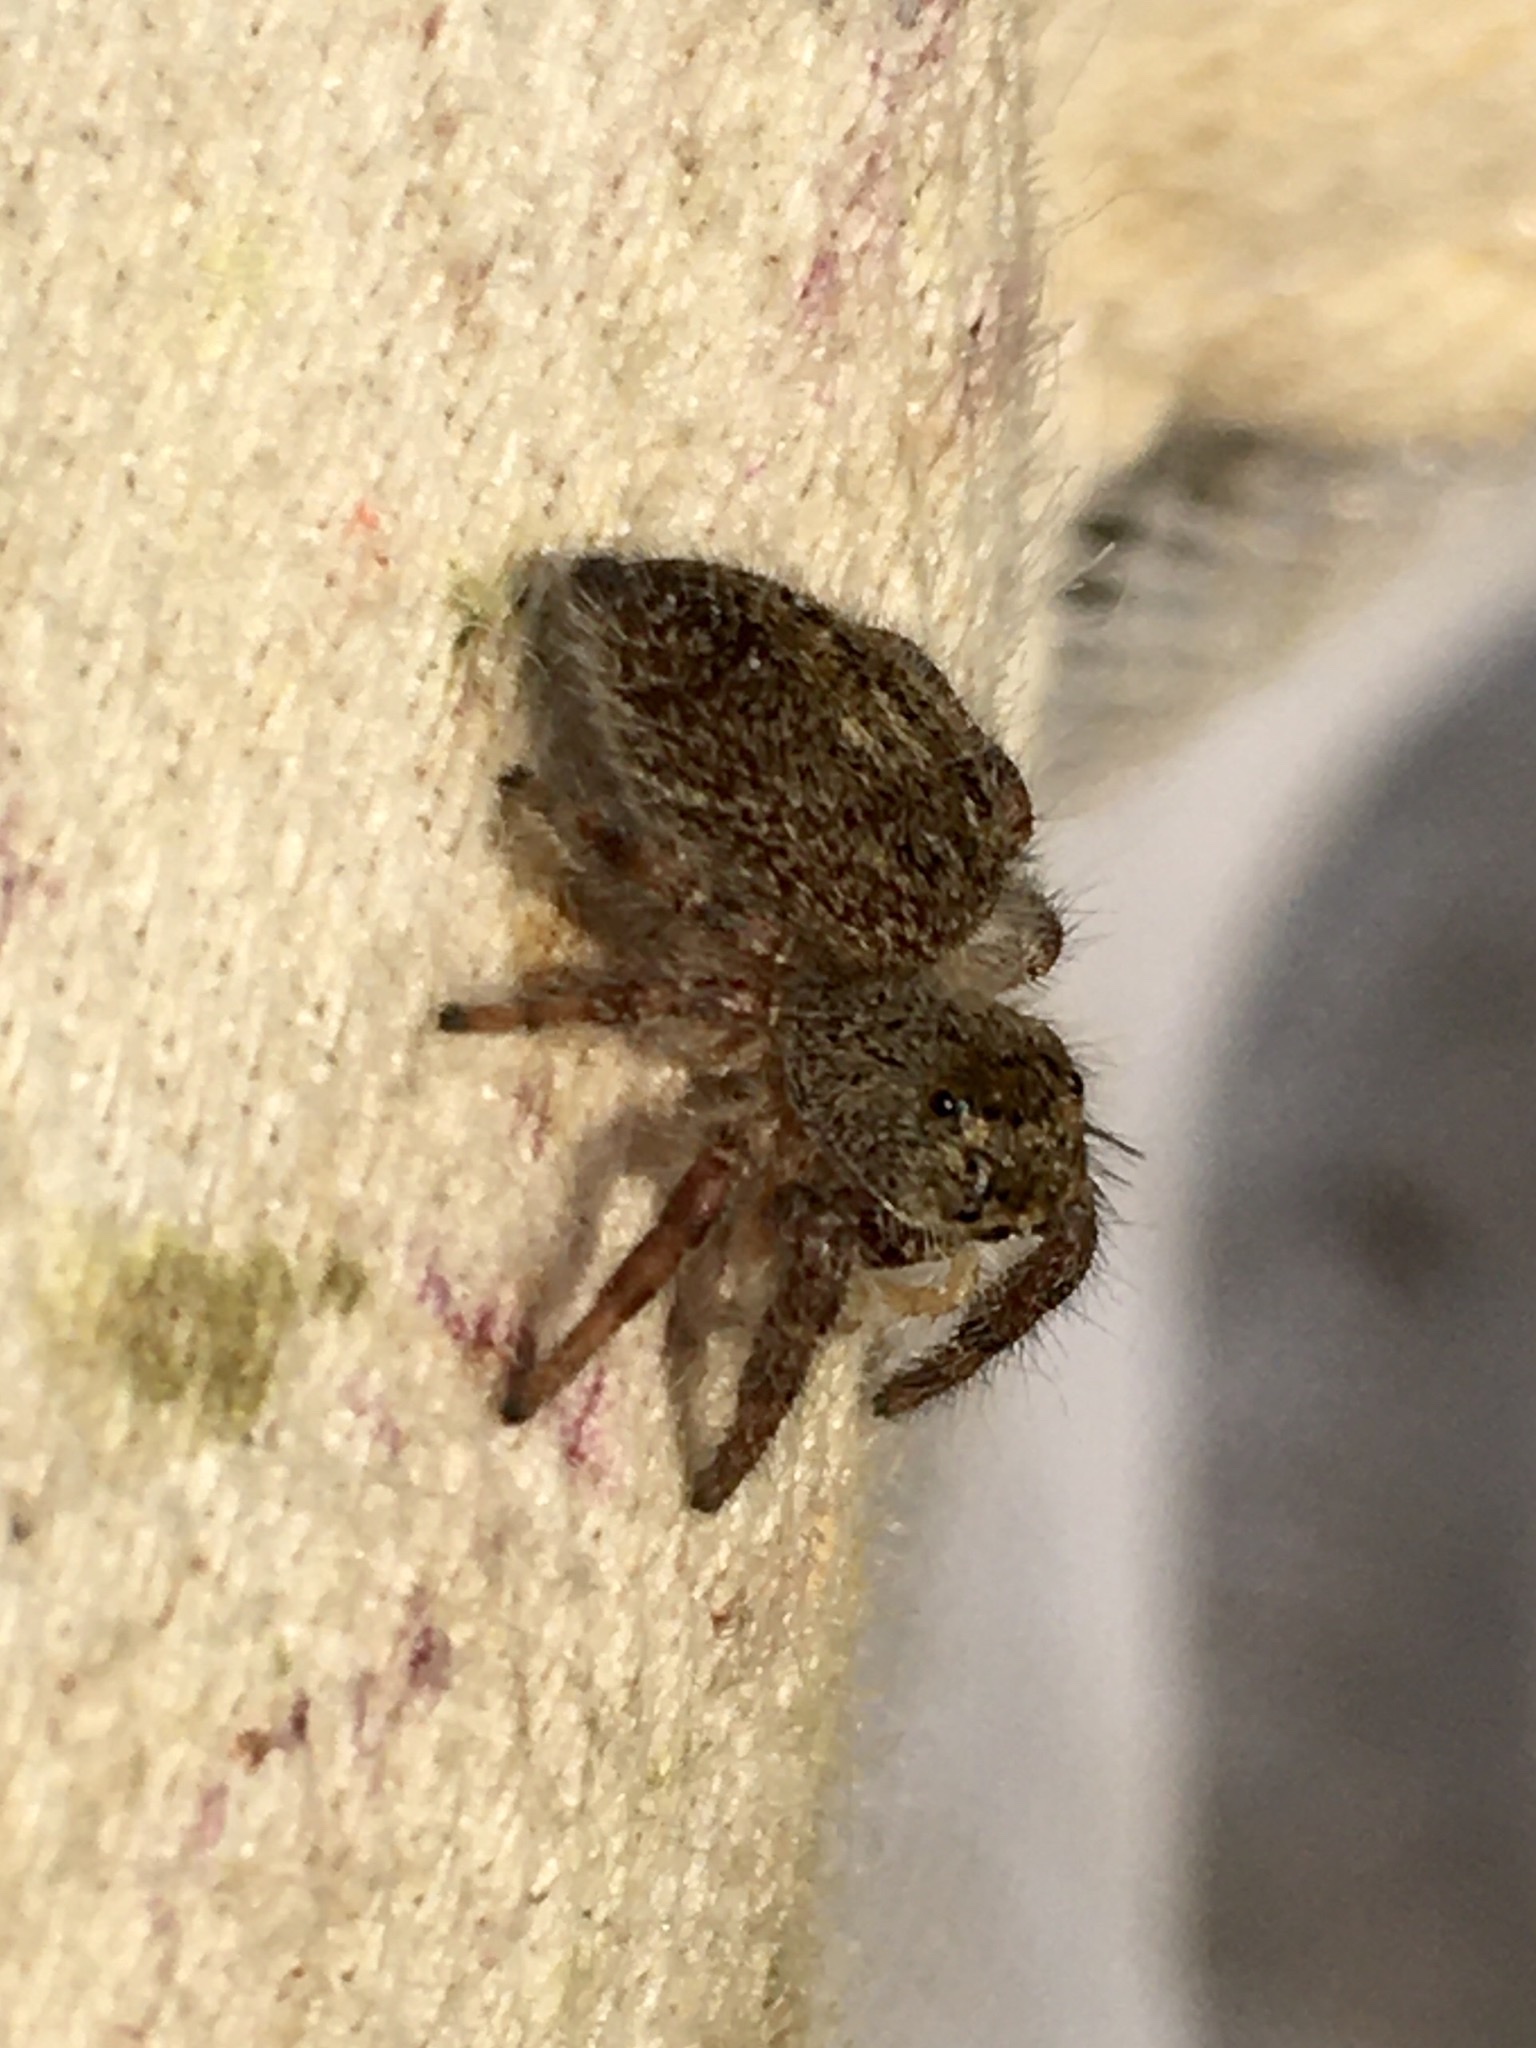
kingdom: Animalia
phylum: Arthropoda
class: Arachnida
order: Araneae
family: Salticidae
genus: Phidippus
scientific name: Phidippus princeps
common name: Grayish jumping spider
